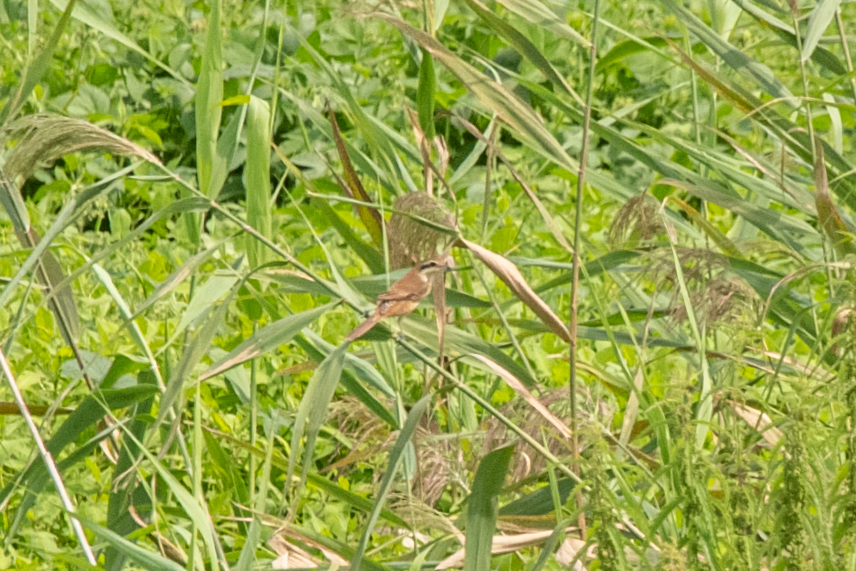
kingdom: Animalia
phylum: Chordata
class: Aves
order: Passeriformes
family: Laniidae
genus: Lanius
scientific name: Lanius cristatus
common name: Brown shrike
